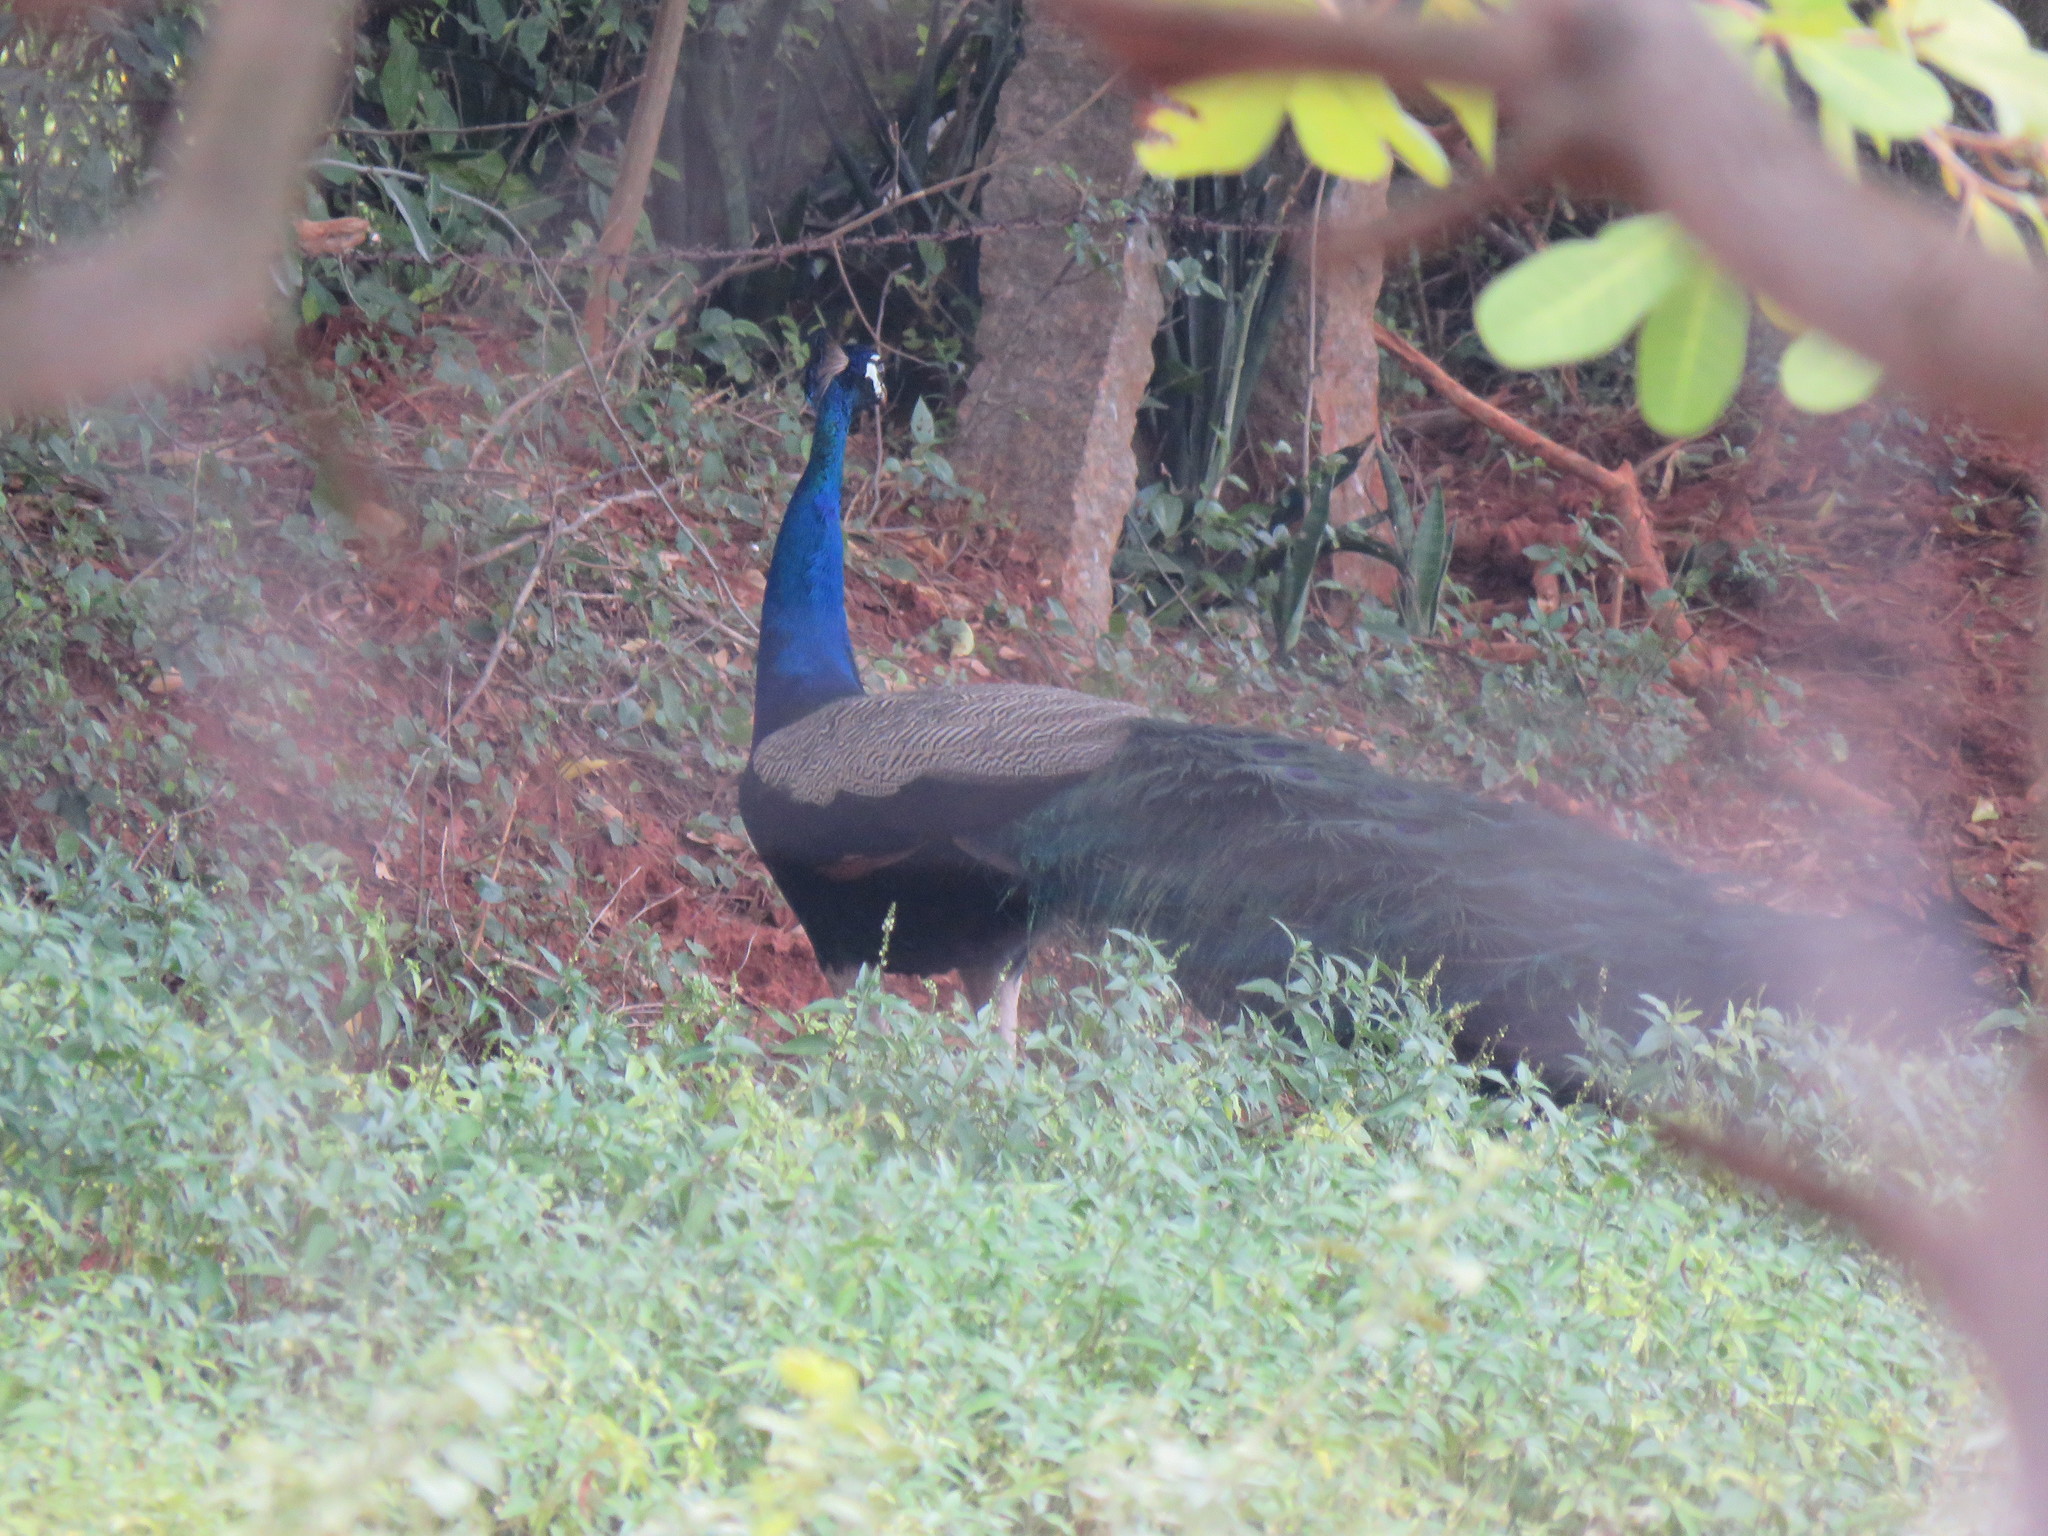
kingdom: Animalia
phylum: Chordata
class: Aves
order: Galliformes
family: Phasianidae
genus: Pavo
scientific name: Pavo cristatus
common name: Indian peafowl
